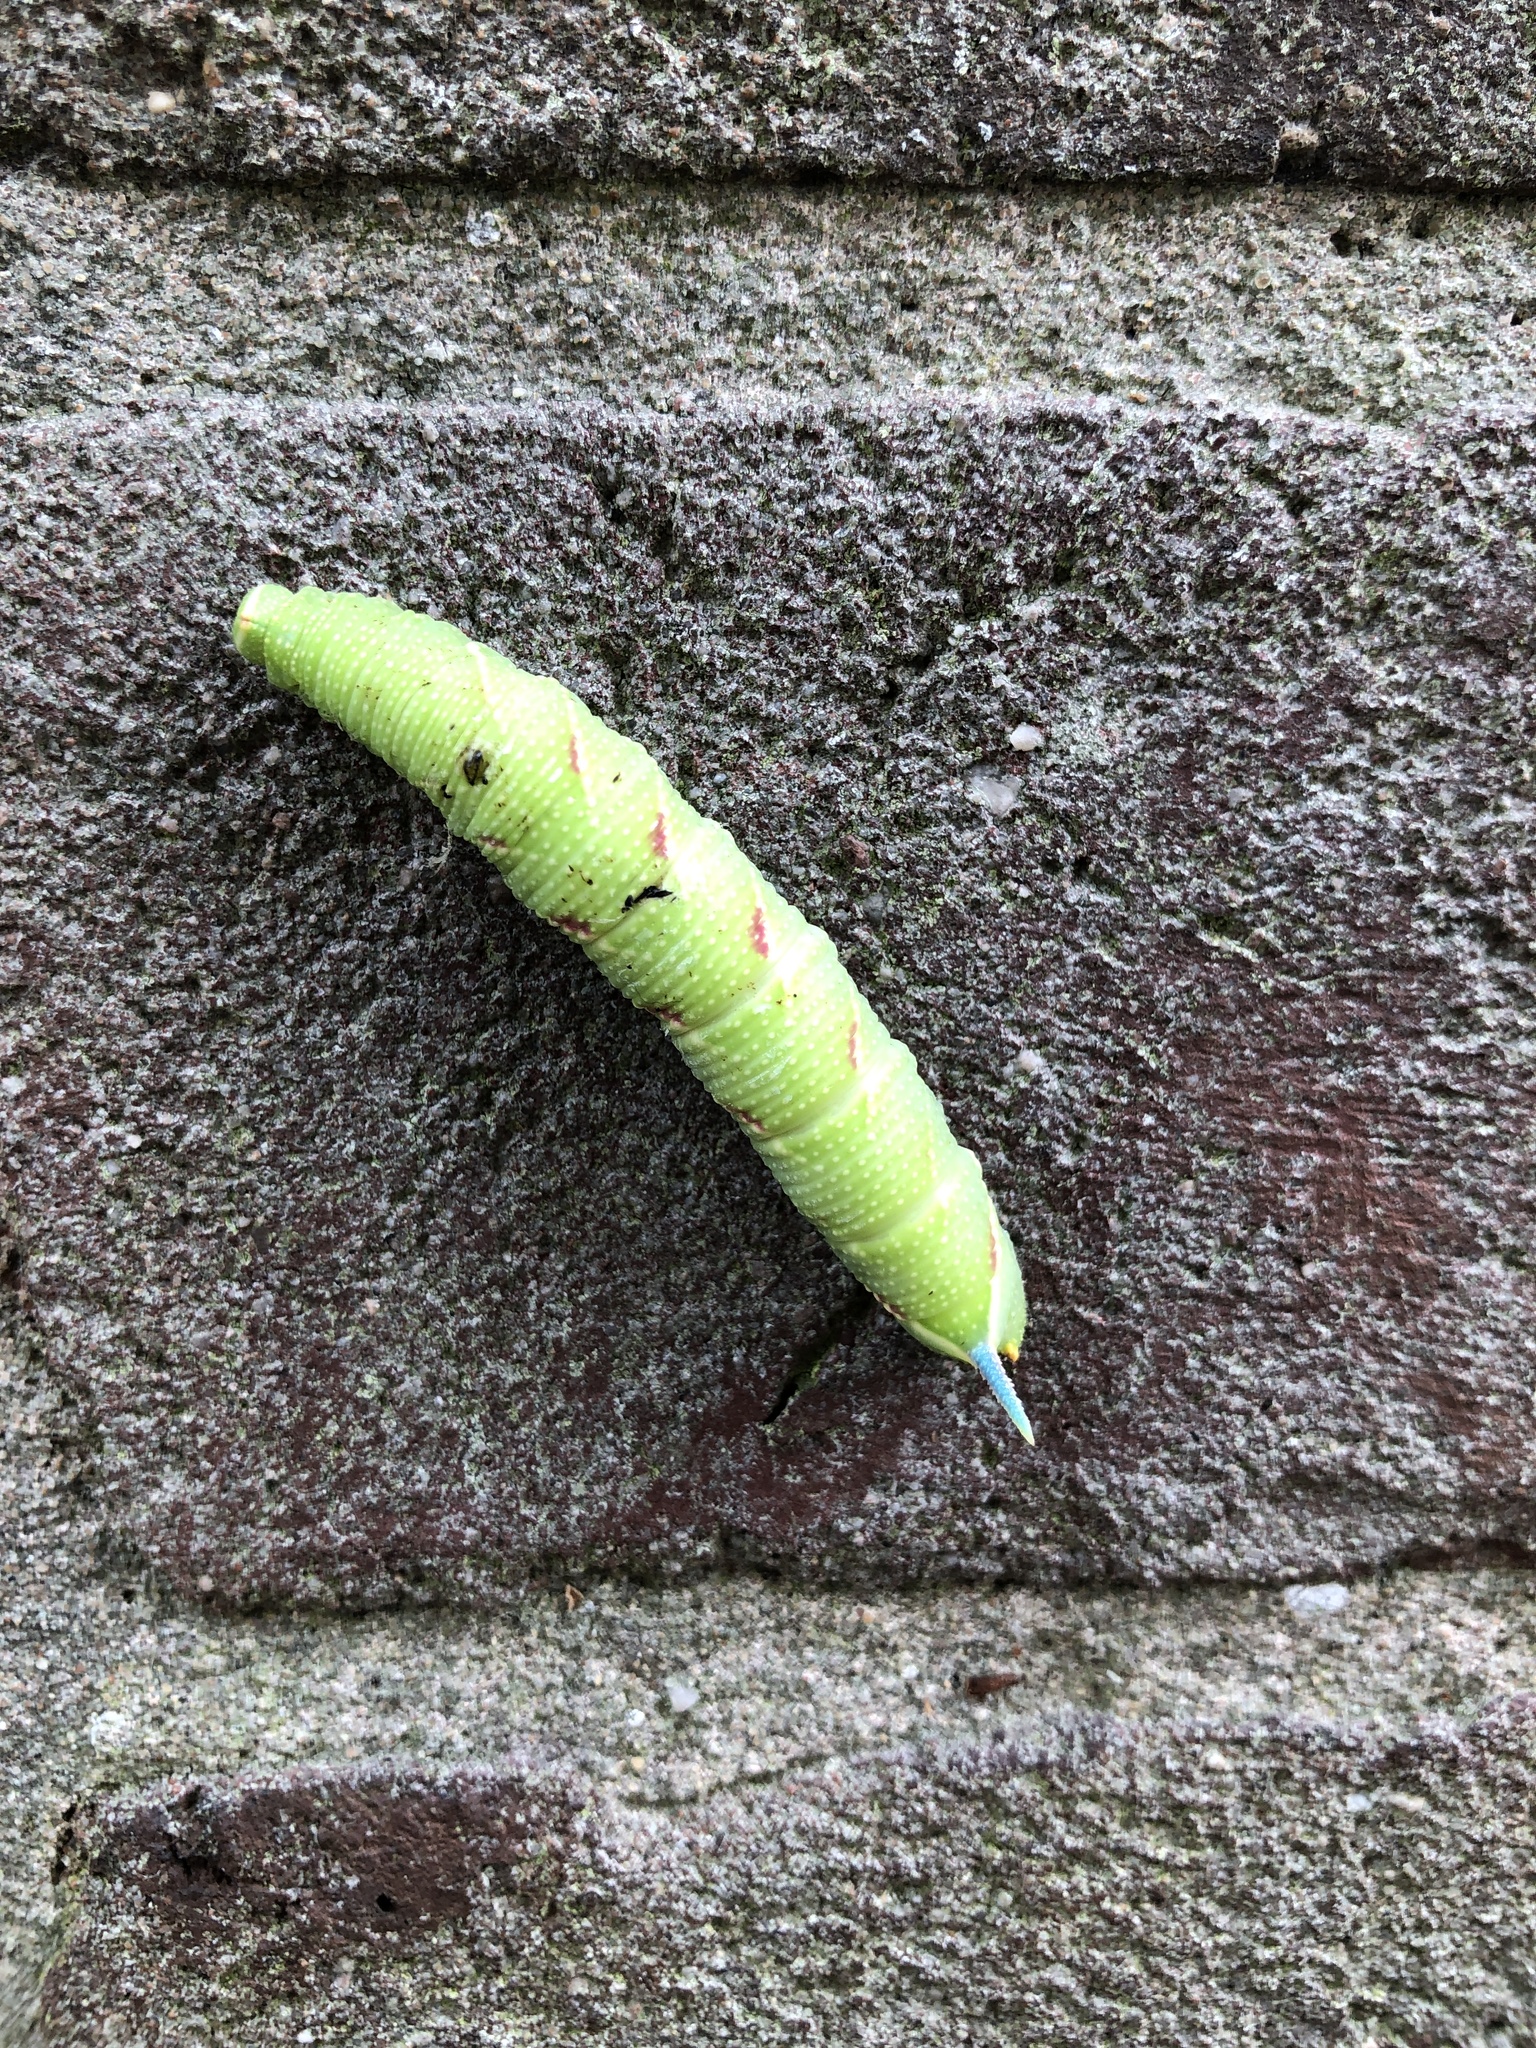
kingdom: Animalia
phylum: Arthropoda
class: Insecta
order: Lepidoptera
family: Sphingidae
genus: Mimas
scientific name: Mimas tiliae
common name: Lime hawk-moth
